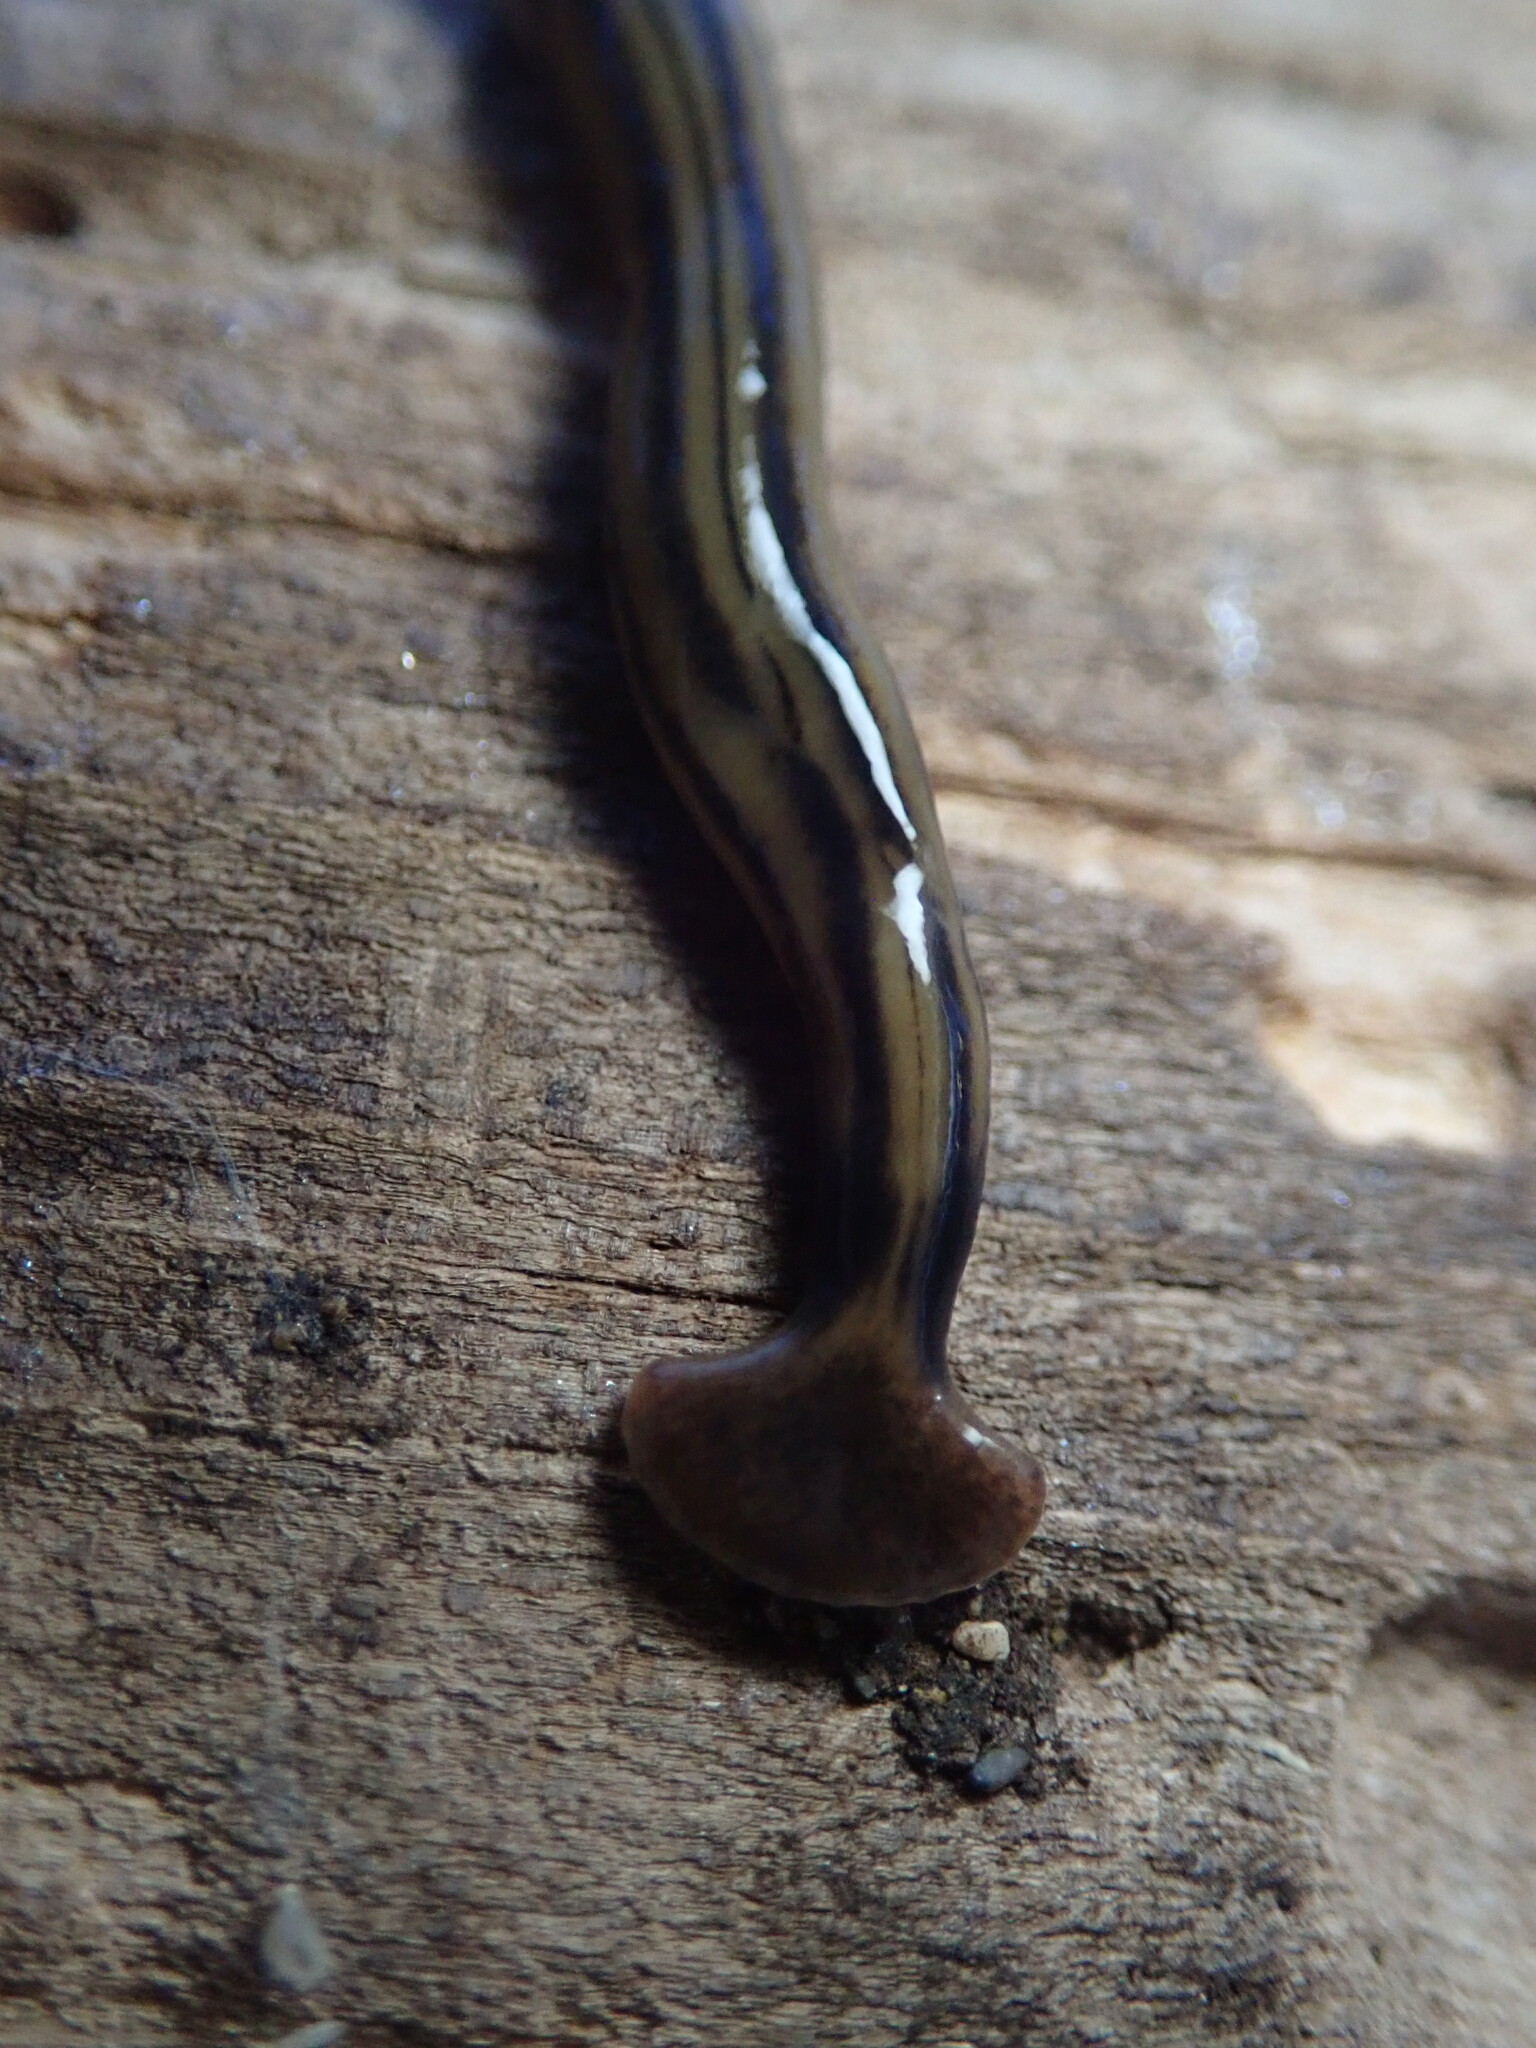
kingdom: Animalia
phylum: Platyhelminthes
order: Tricladida
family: Geoplanidae
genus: Bipalium
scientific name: Bipalium kewense
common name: Hammerhead flatworm
